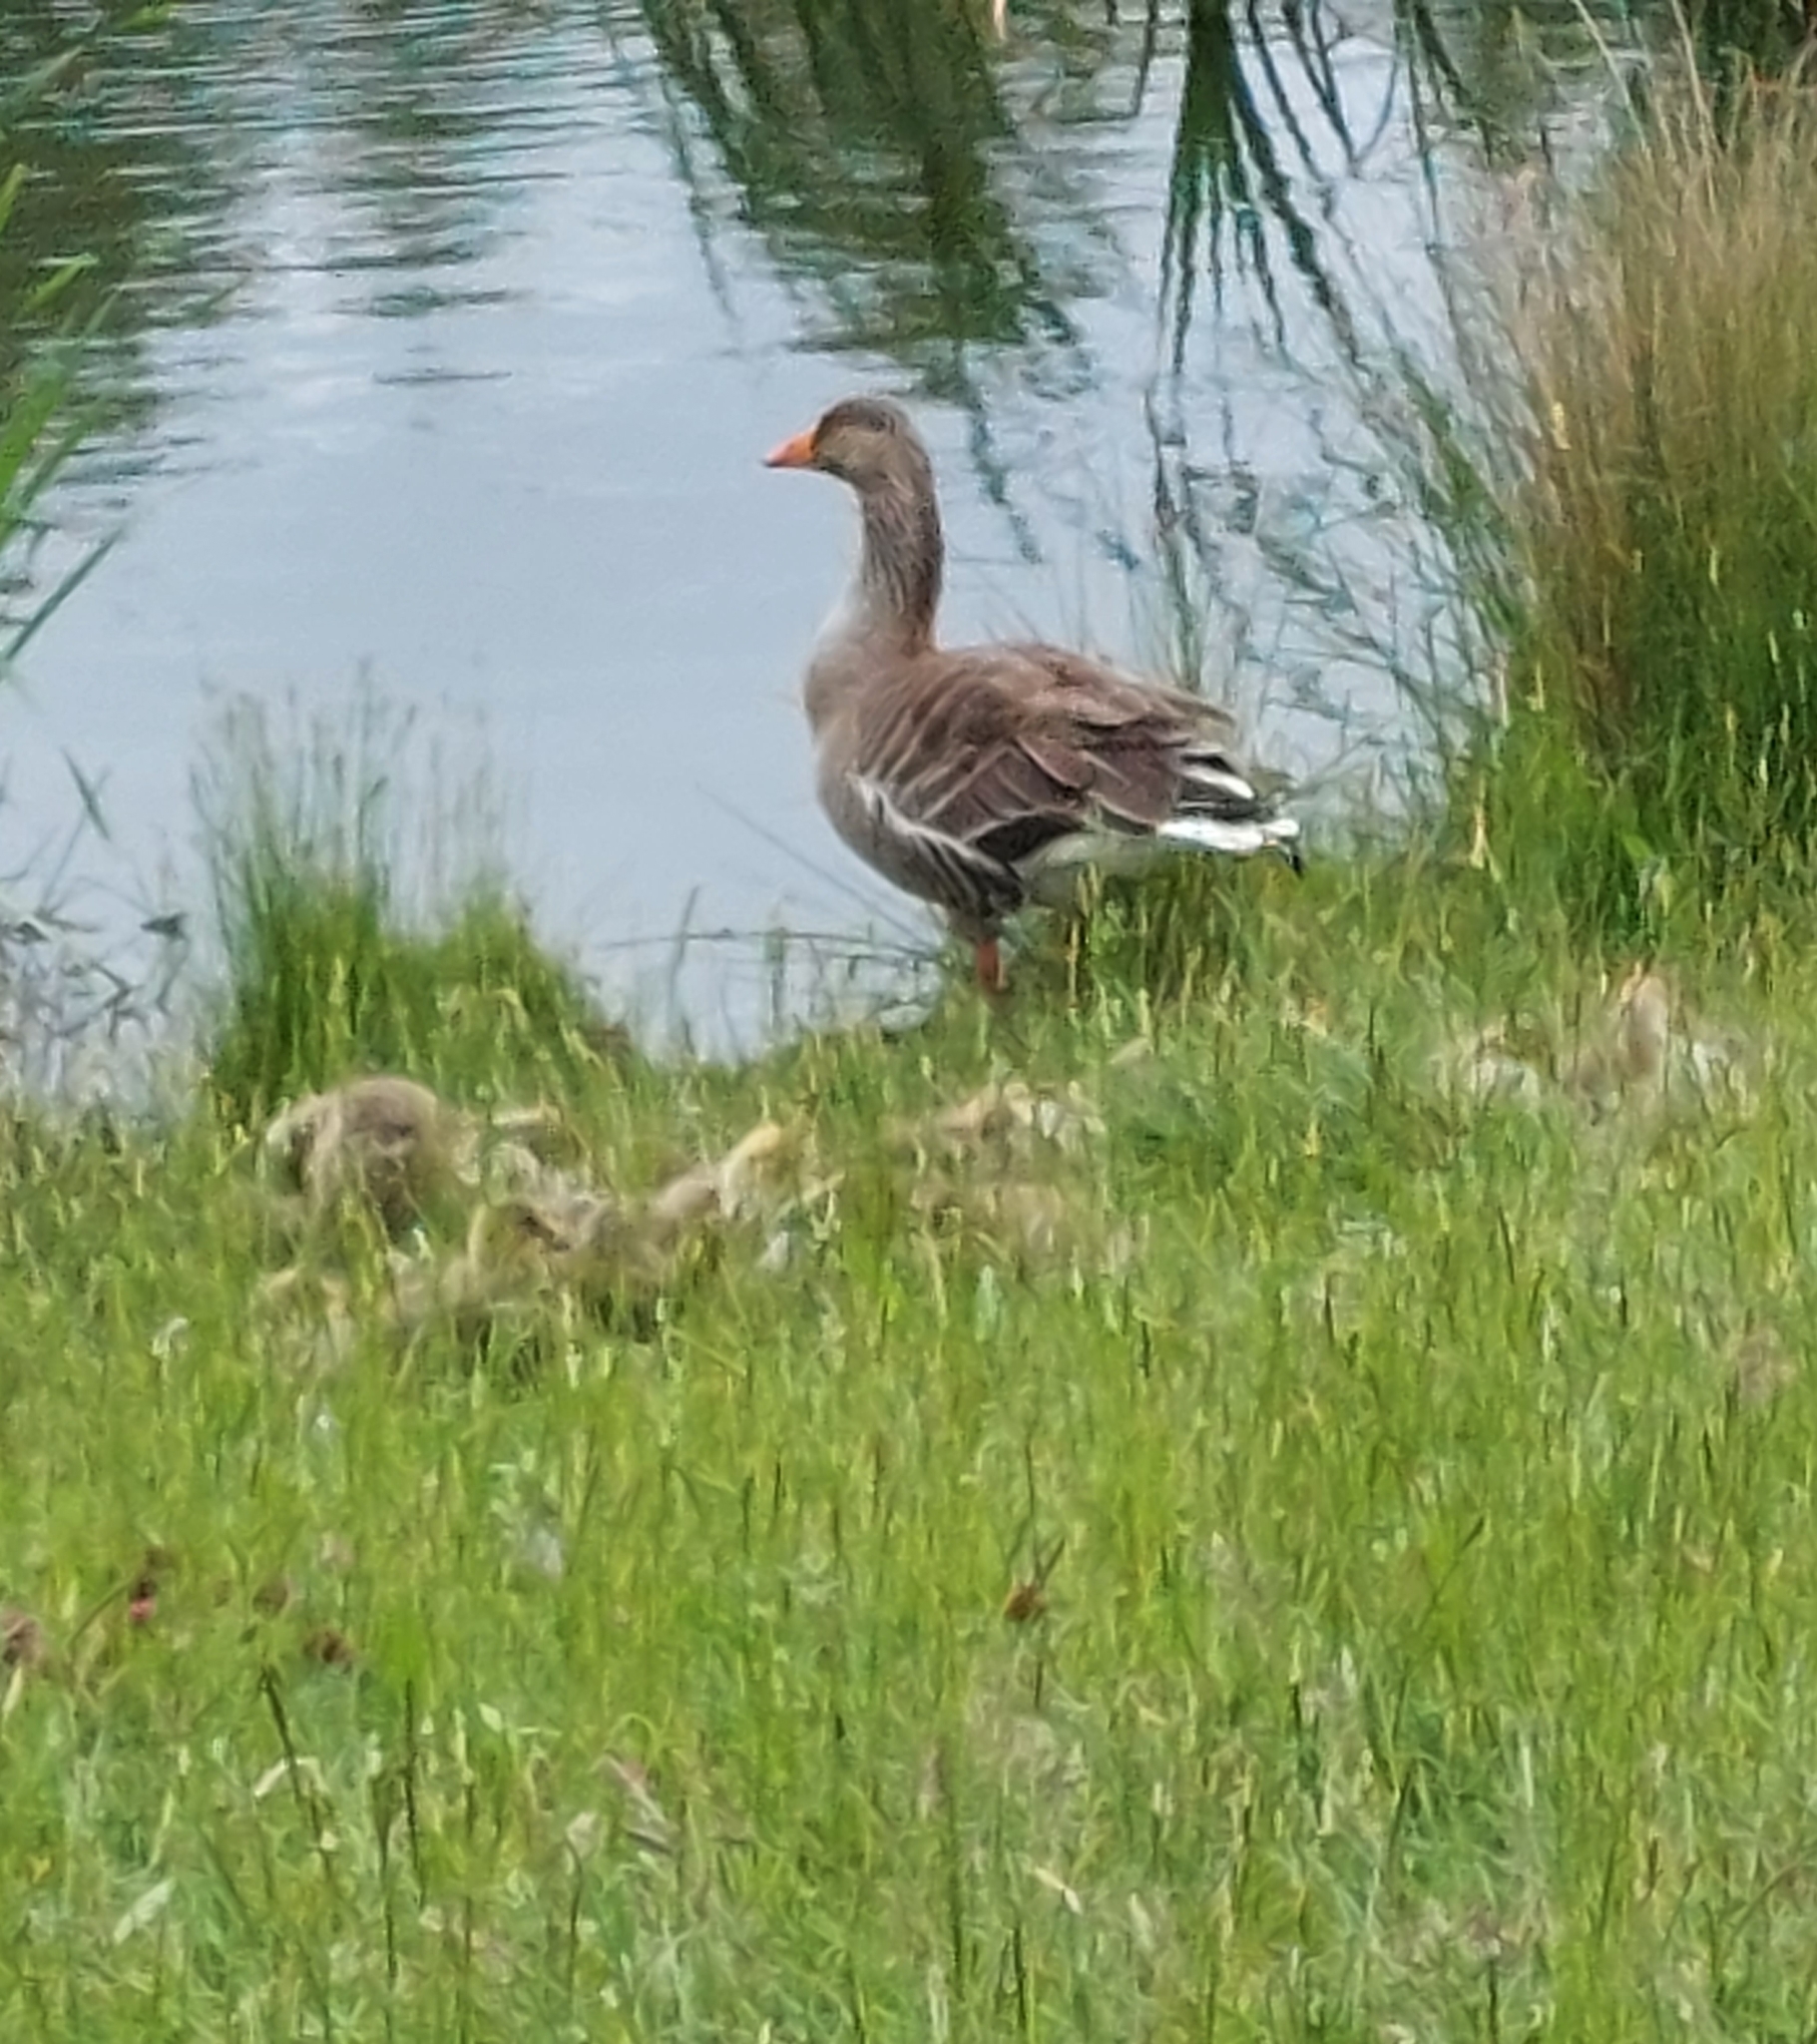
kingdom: Animalia
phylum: Chordata
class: Aves
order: Anseriformes
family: Anatidae
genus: Anser
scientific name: Anser anser
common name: Greylag goose
